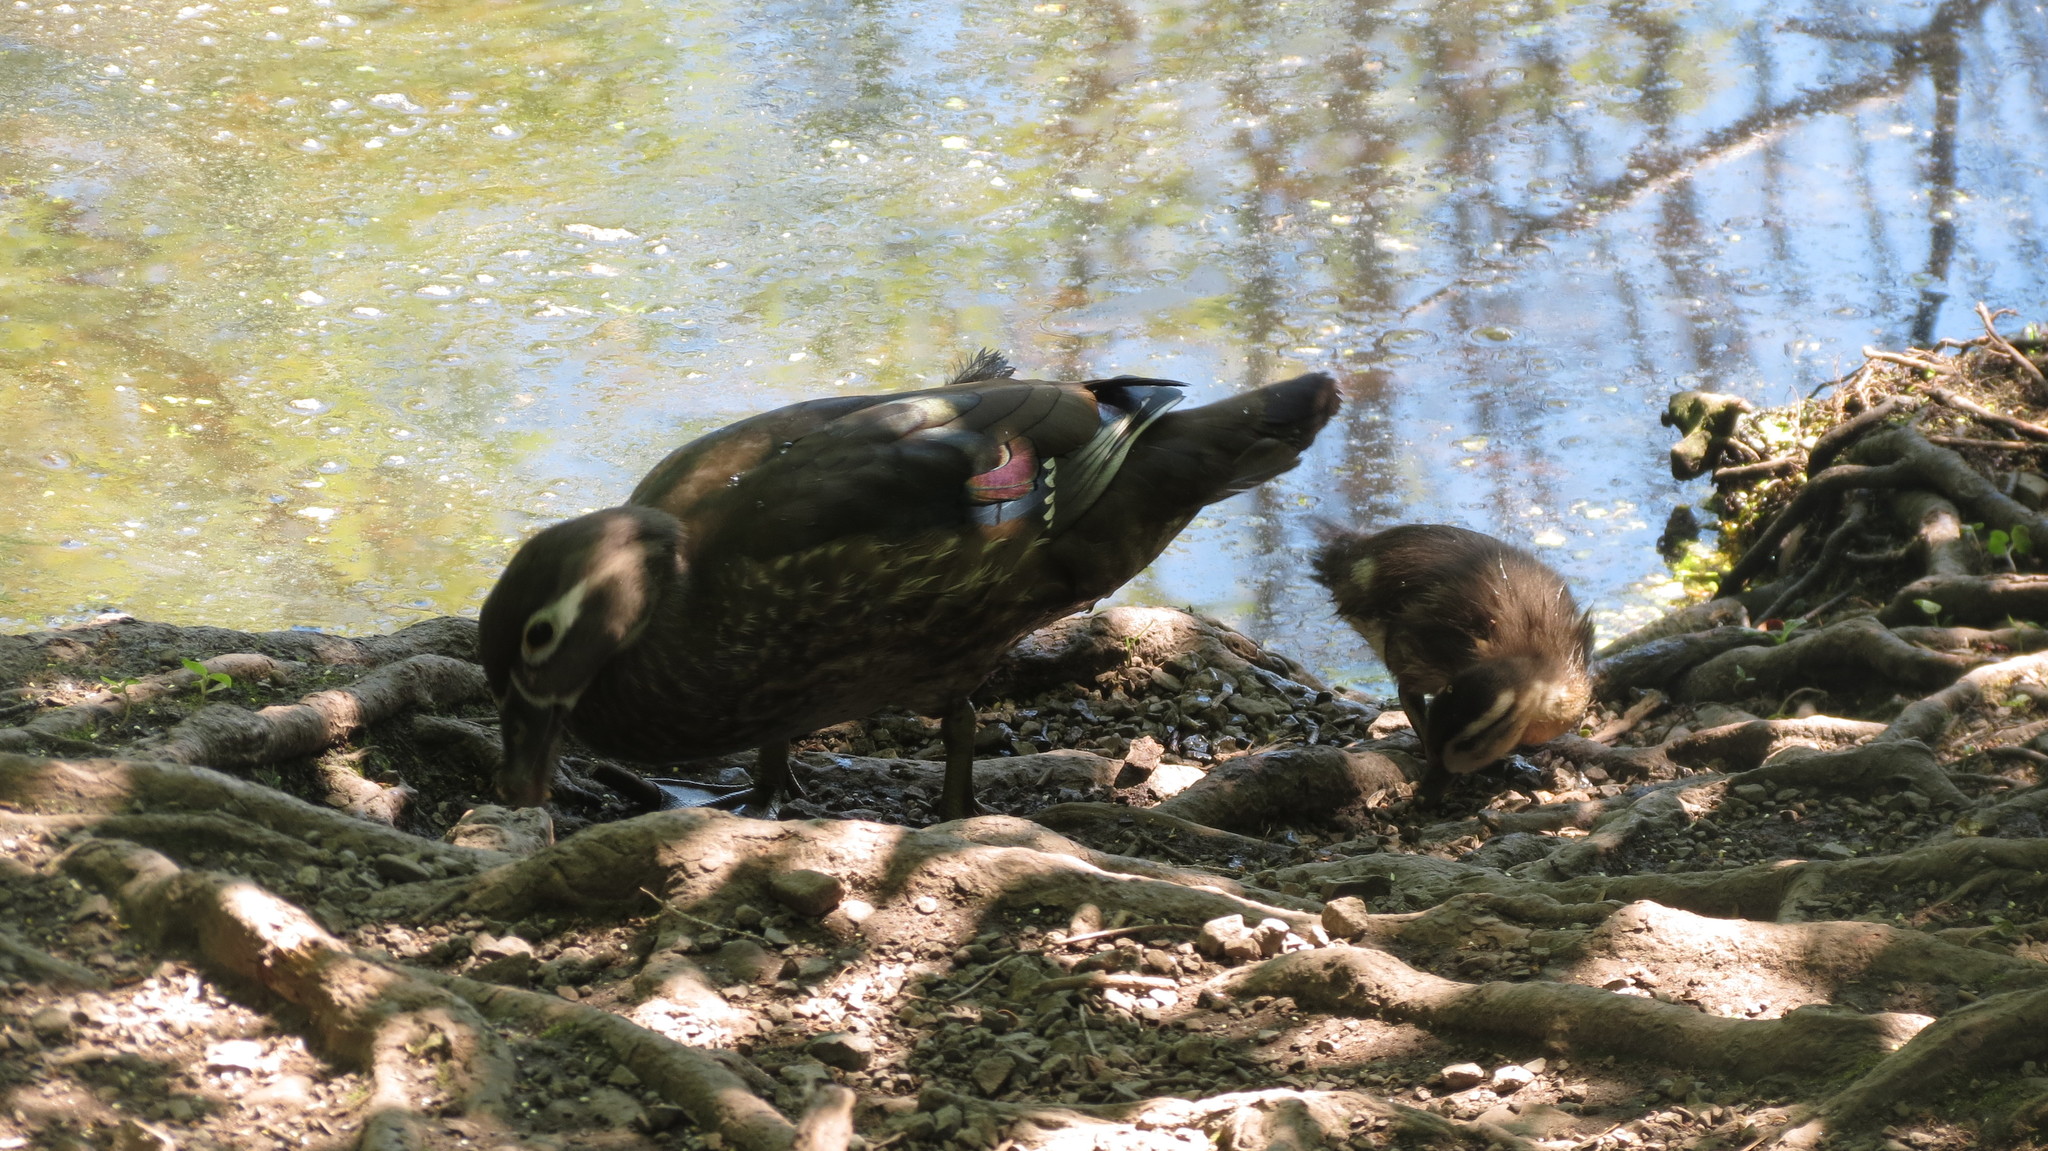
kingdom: Animalia
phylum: Chordata
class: Aves
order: Anseriformes
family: Anatidae
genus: Aix
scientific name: Aix sponsa
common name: Wood duck
